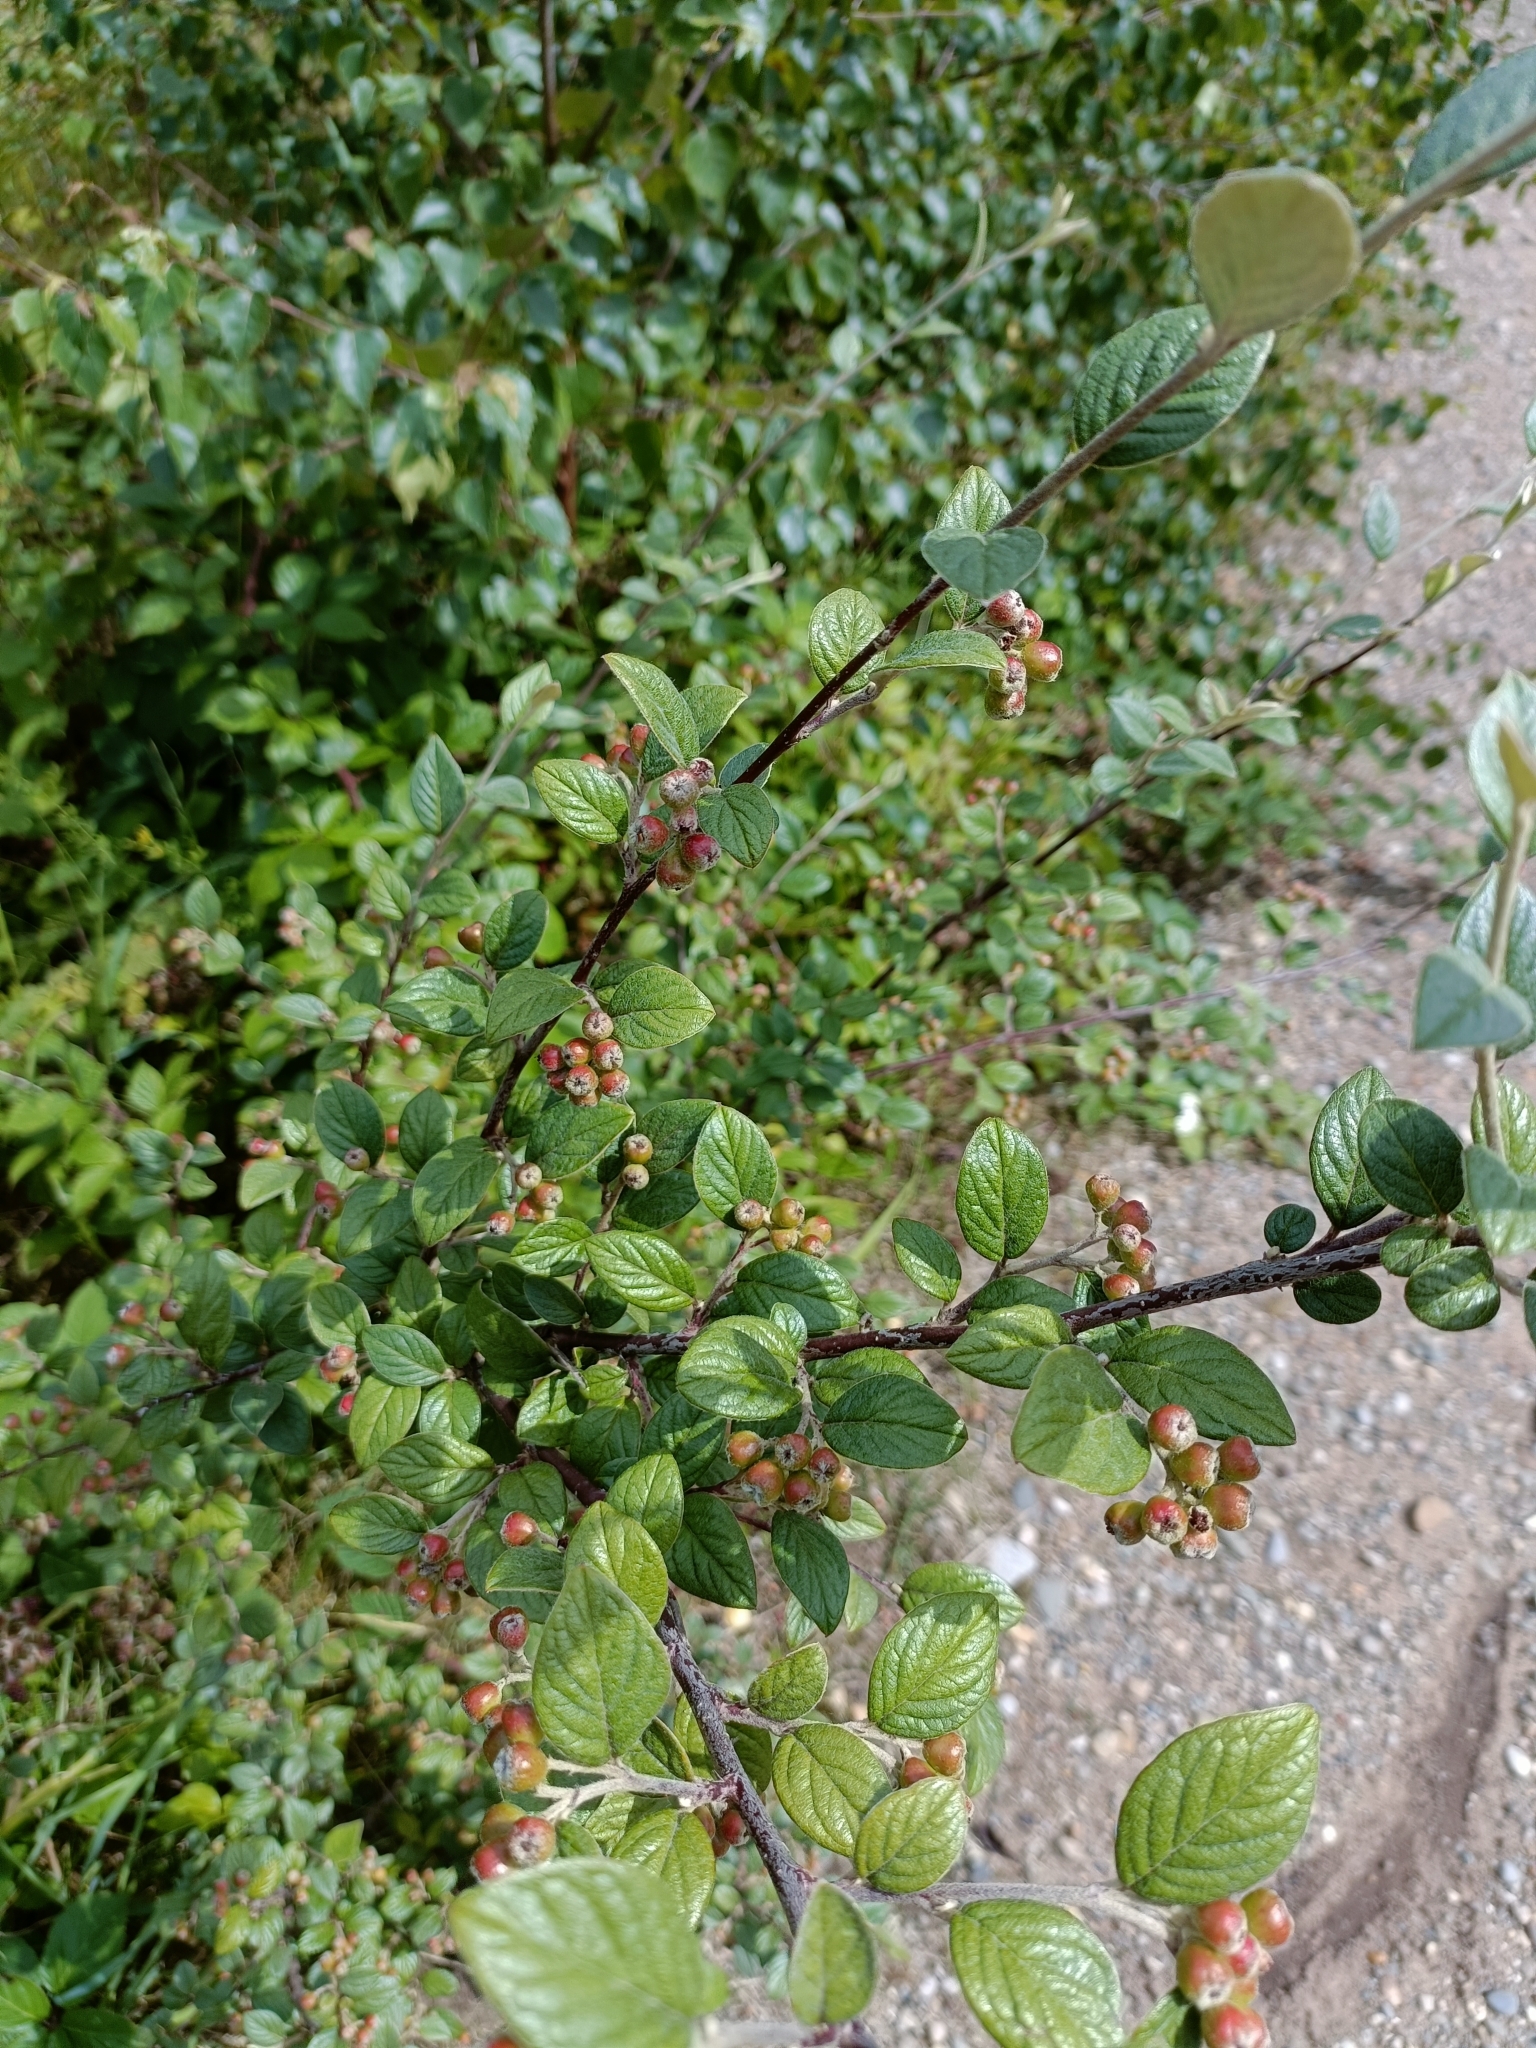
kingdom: Plantae
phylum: Tracheophyta
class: Magnoliopsida
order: Rosales
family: Rosaceae
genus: Cotoneaster
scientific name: Cotoneaster franchetii
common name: Franchet's cotoneaster
